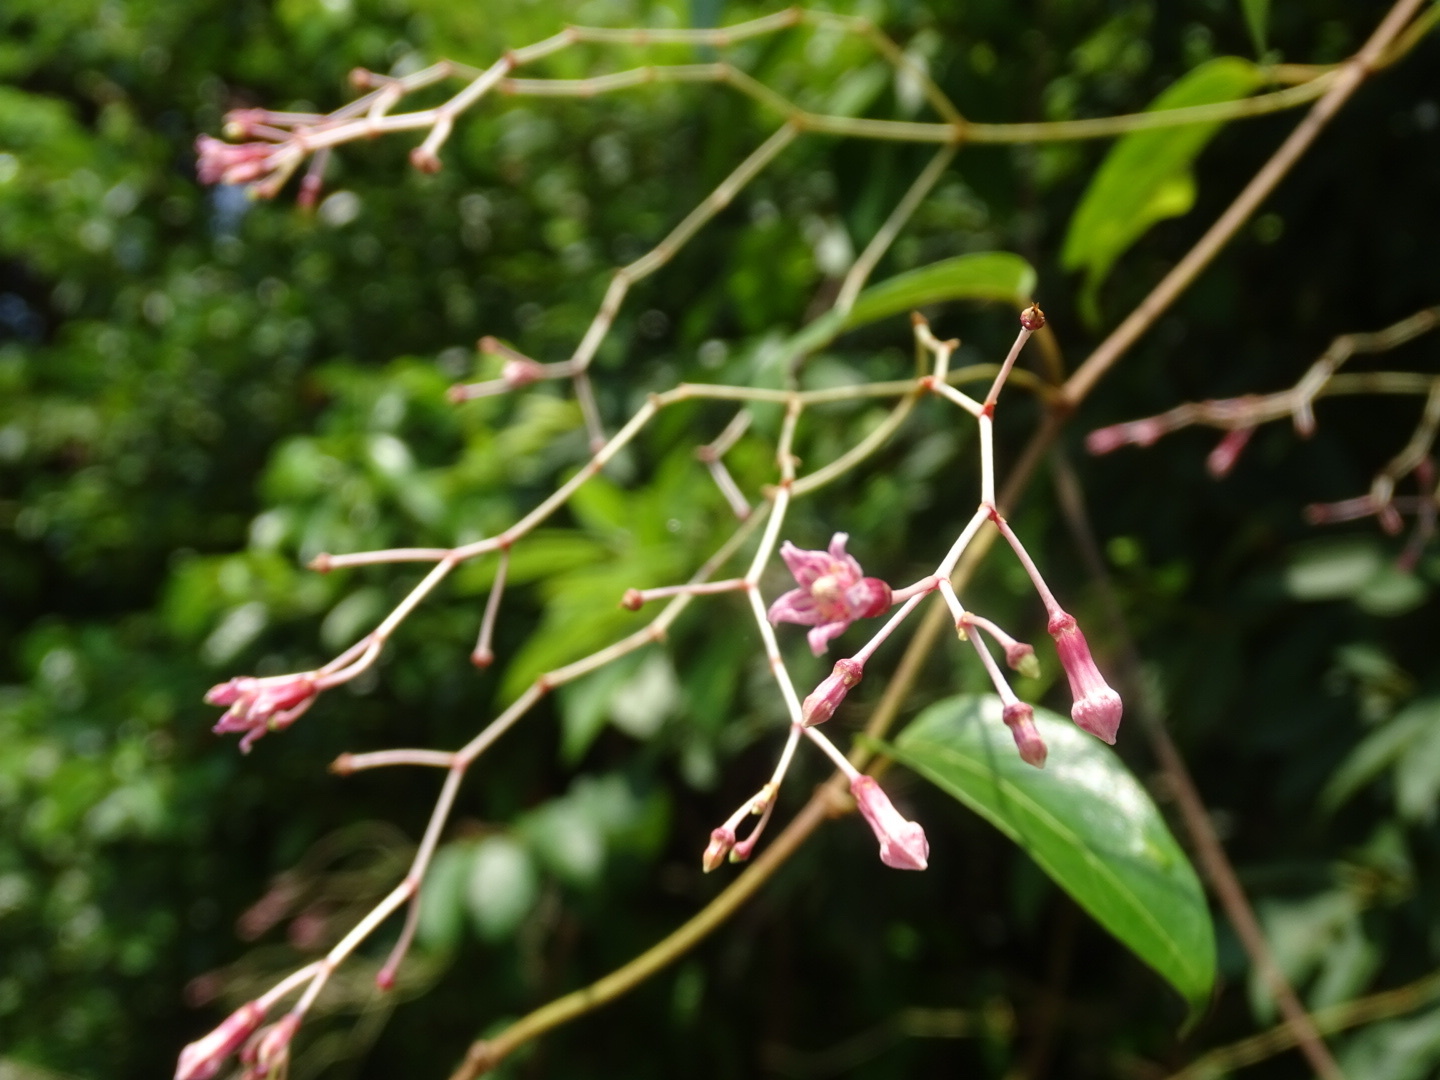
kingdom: Plantae
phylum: Tracheophyta
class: Magnoliopsida
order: Gentianales
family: Apocynaceae
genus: Urceola
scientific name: Urceola rosea
